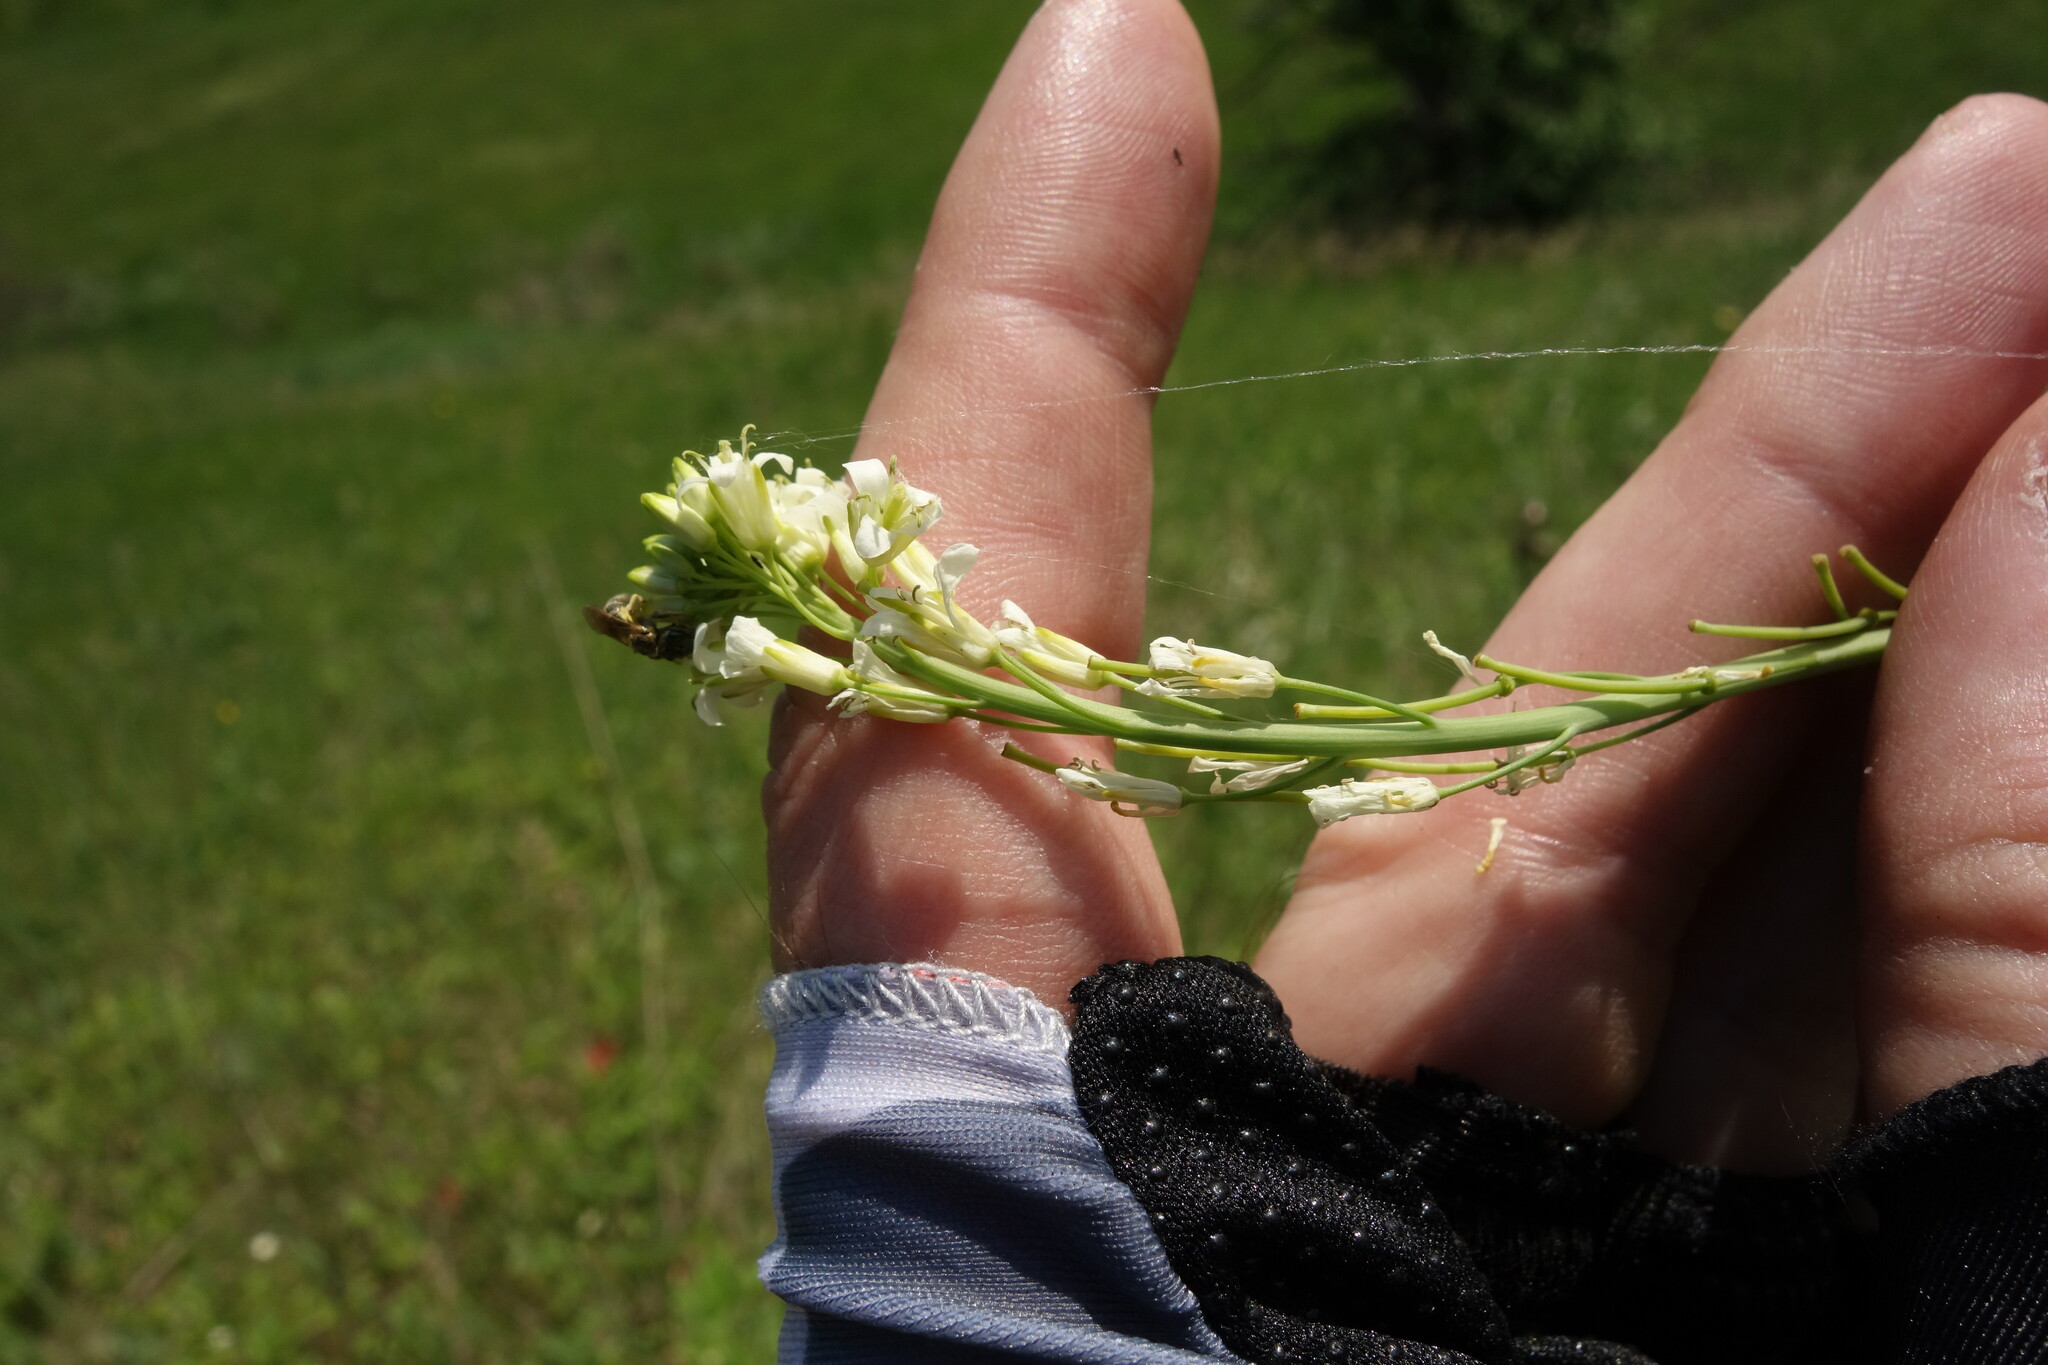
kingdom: Plantae
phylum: Tracheophyta
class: Magnoliopsida
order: Brassicales
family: Brassicaceae
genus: Turritis
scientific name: Turritis glabra
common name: Tower rockcress
